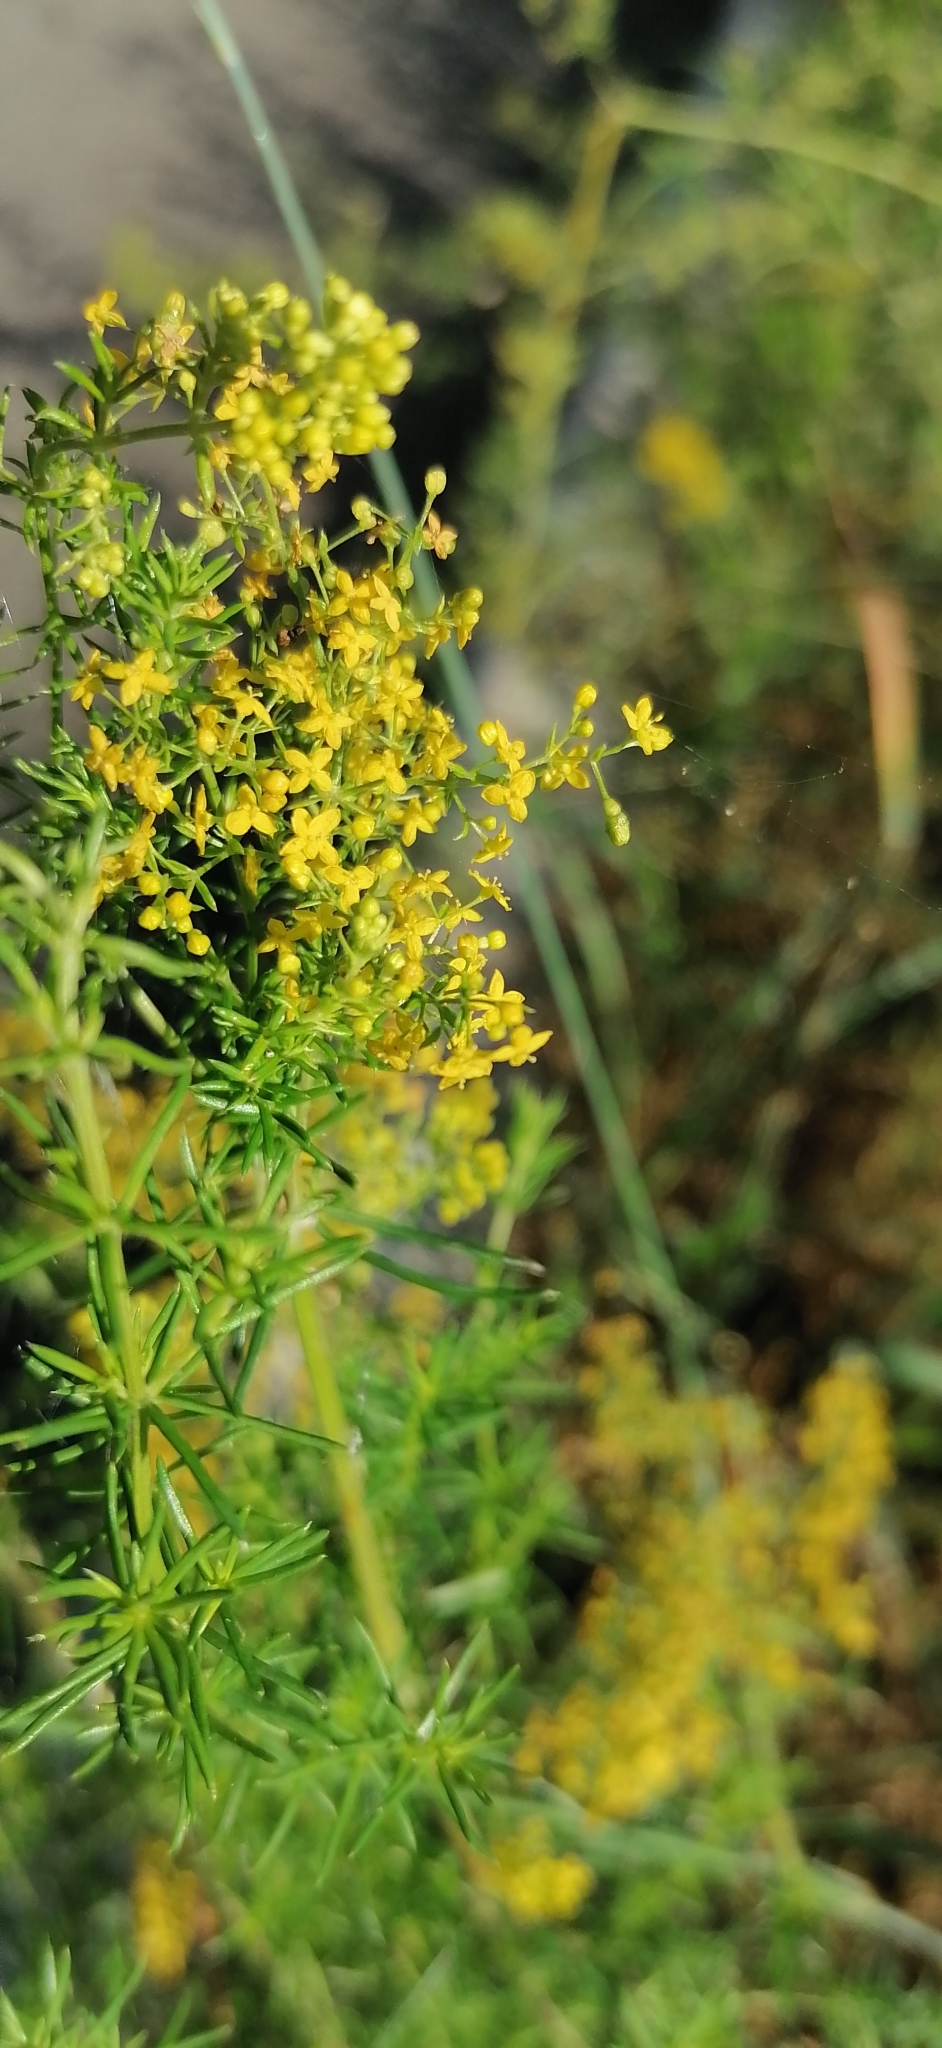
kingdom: Plantae
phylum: Tracheophyta
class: Magnoliopsida
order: Gentianales
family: Rubiaceae
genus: Galium
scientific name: Galium verum
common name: Lady's bedstraw
